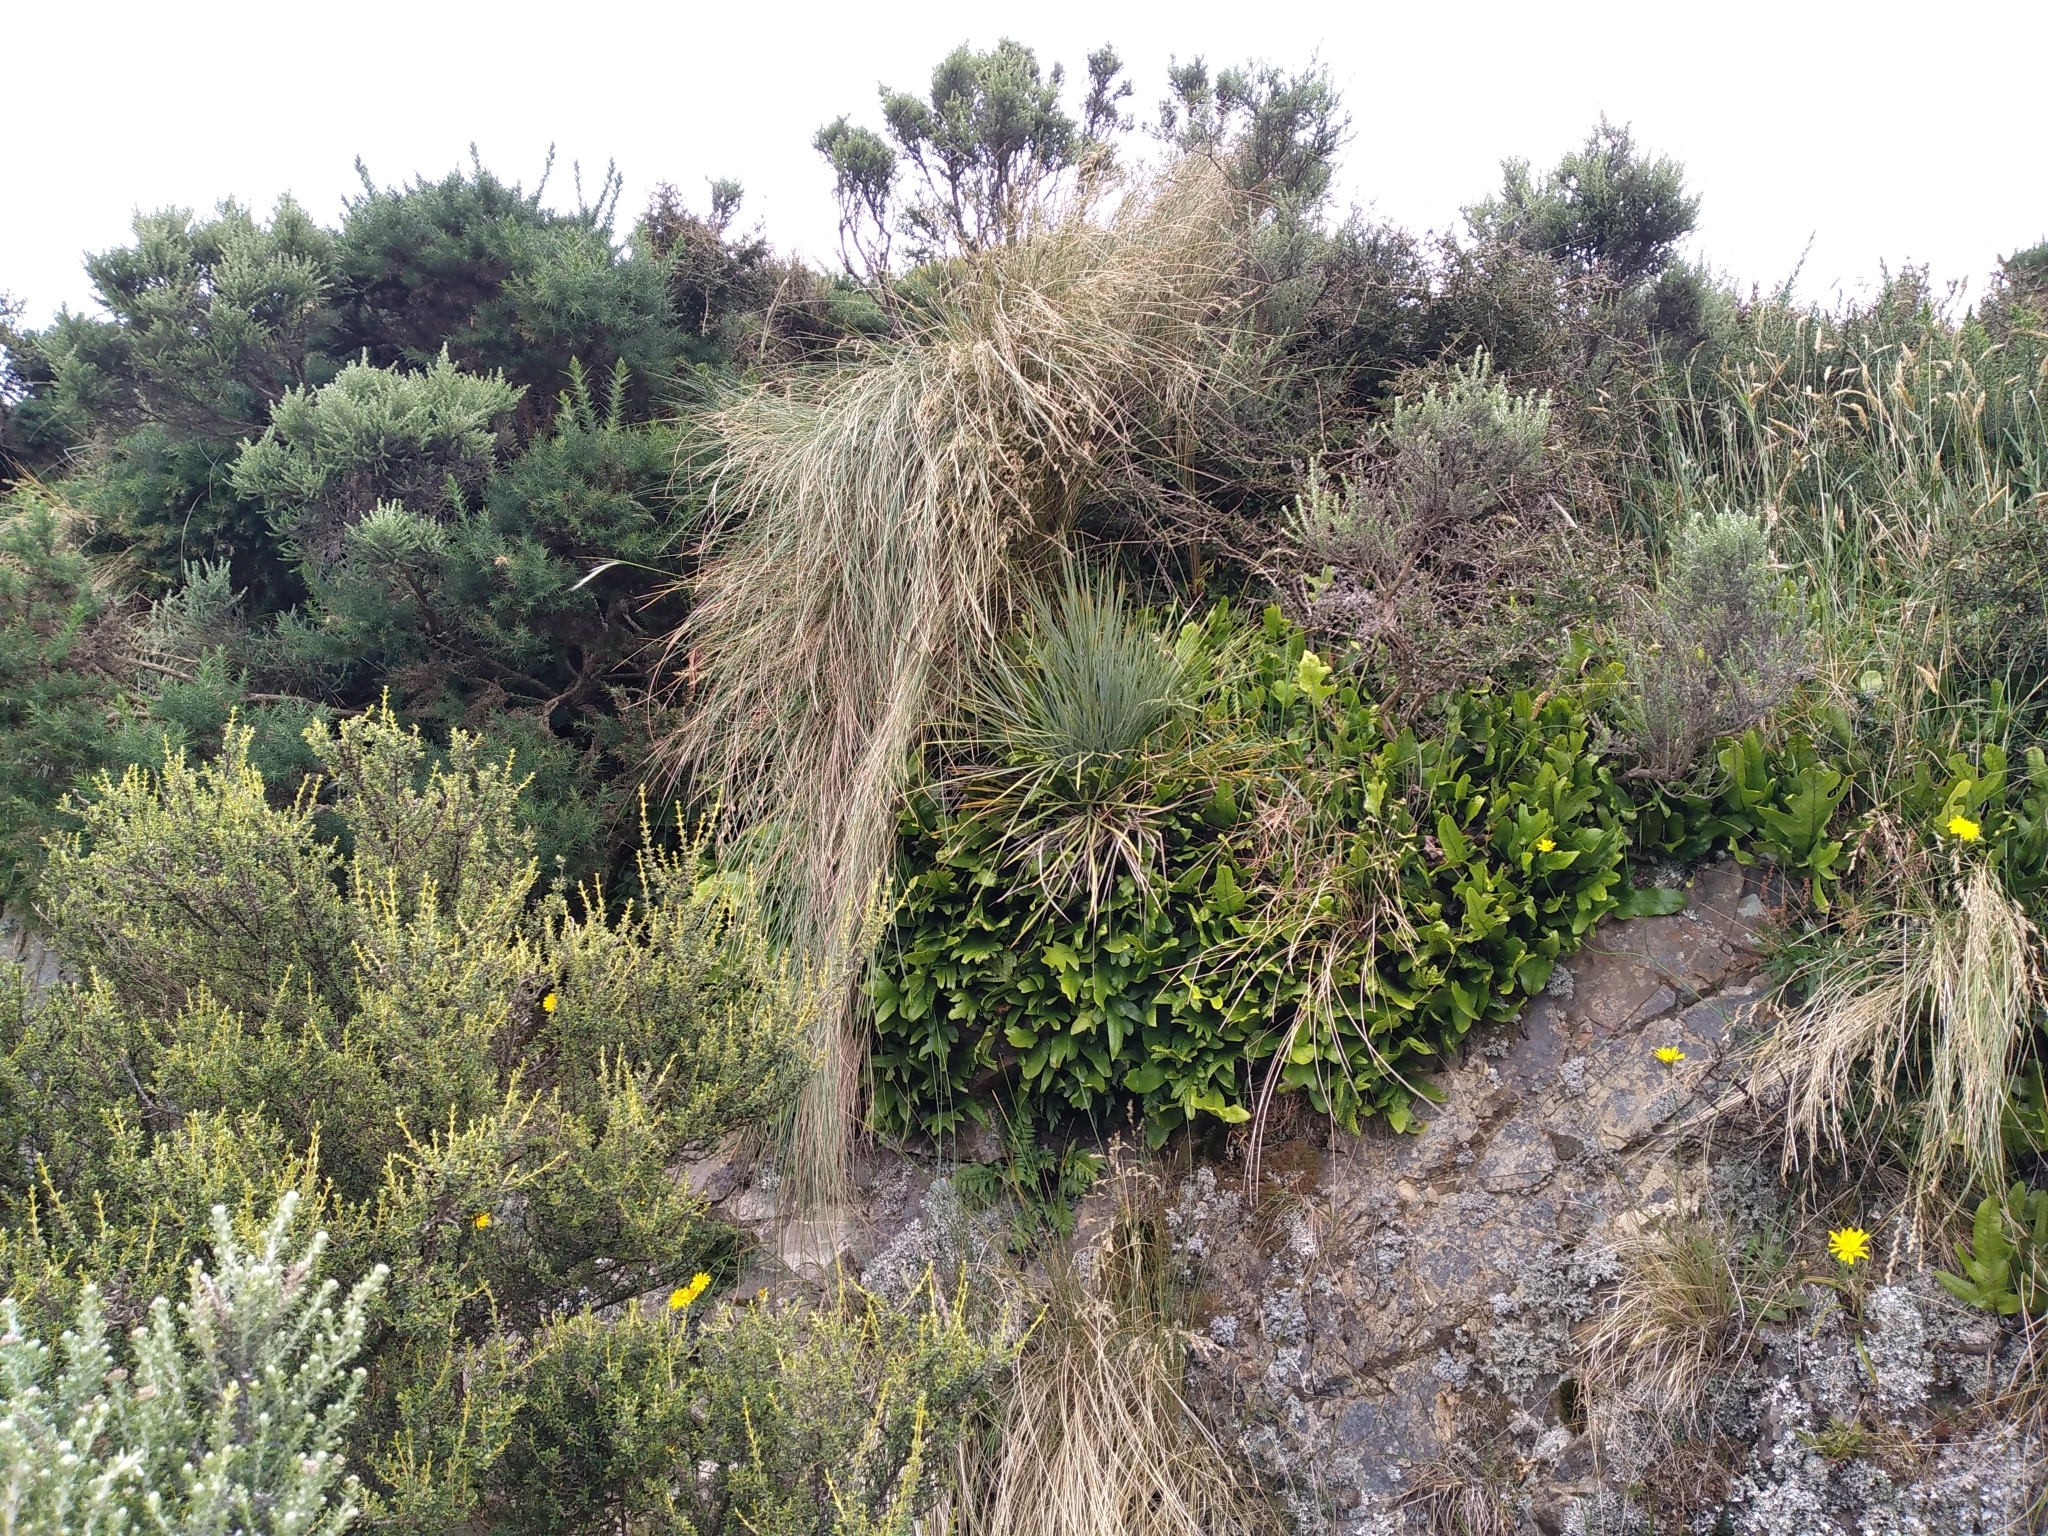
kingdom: Plantae
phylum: Tracheophyta
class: Magnoliopsida
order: Apiales
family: Apiaceae
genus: Aciphylla
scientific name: Aciphylla squarrosa
